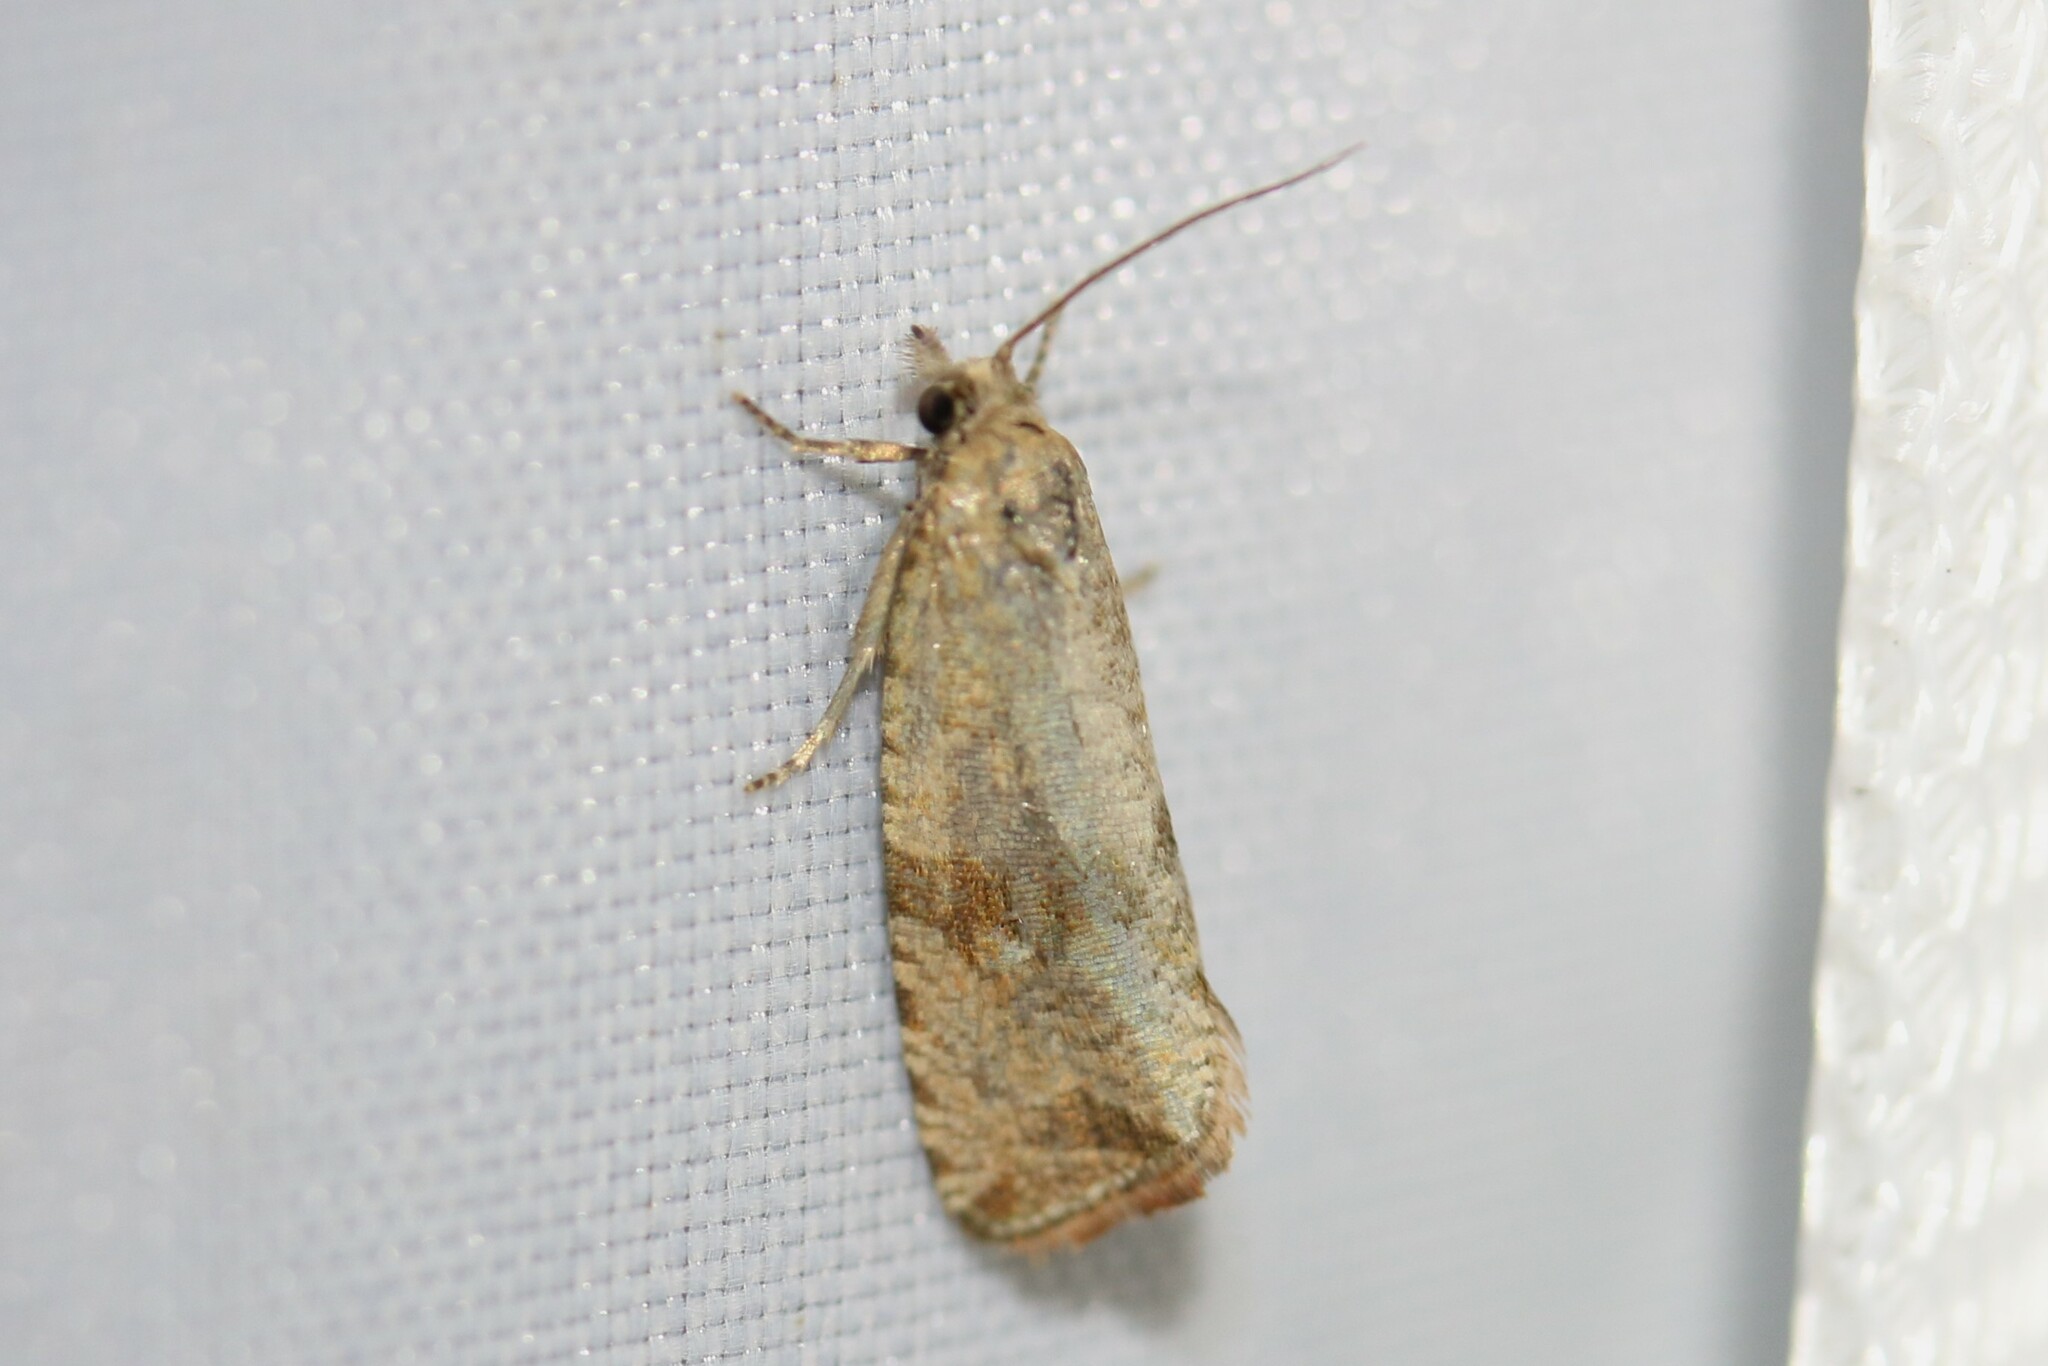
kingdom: Animalia
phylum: Arthropoda
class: Insecta
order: Lepidoptera
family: Tortricidae
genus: Celypha
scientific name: Celypha striana
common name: Barred marble
